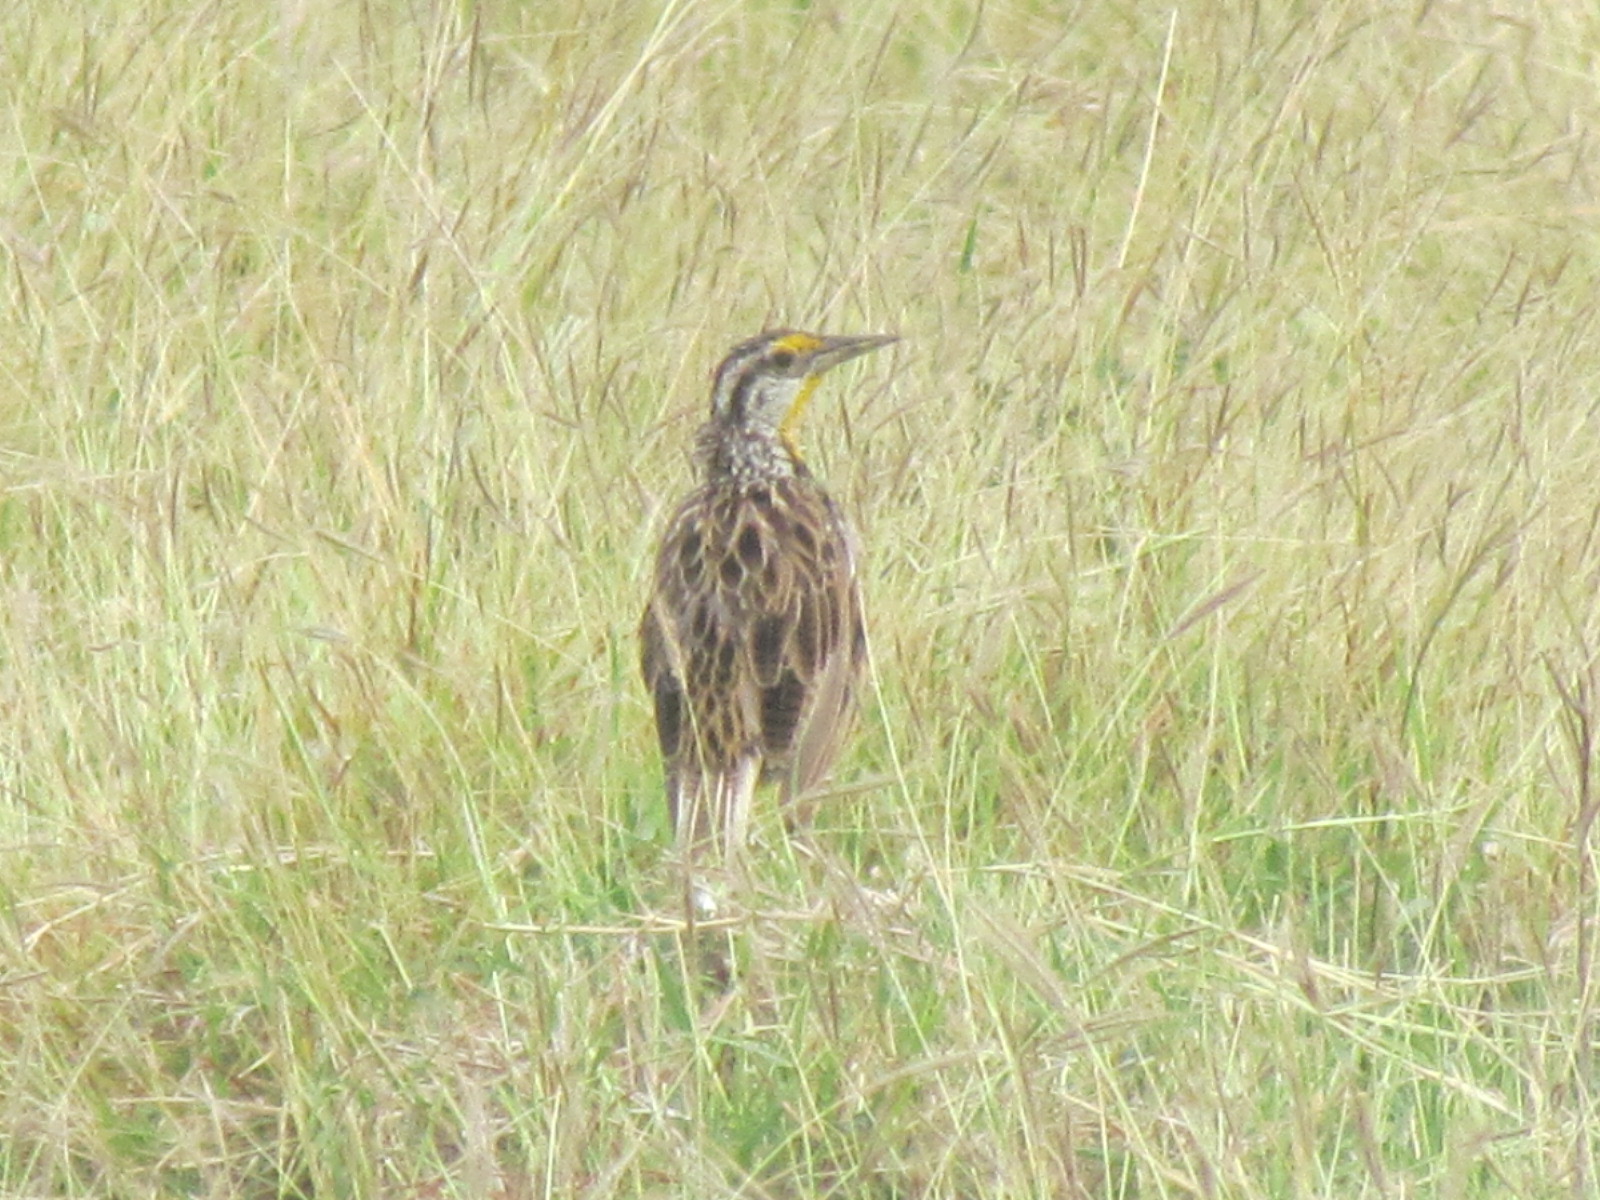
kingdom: Animalia
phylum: Chordata
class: Aves
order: Passeriformes
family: Icteridae
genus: Sturnella
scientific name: Sturnella magna
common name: Eastern meadowlark
